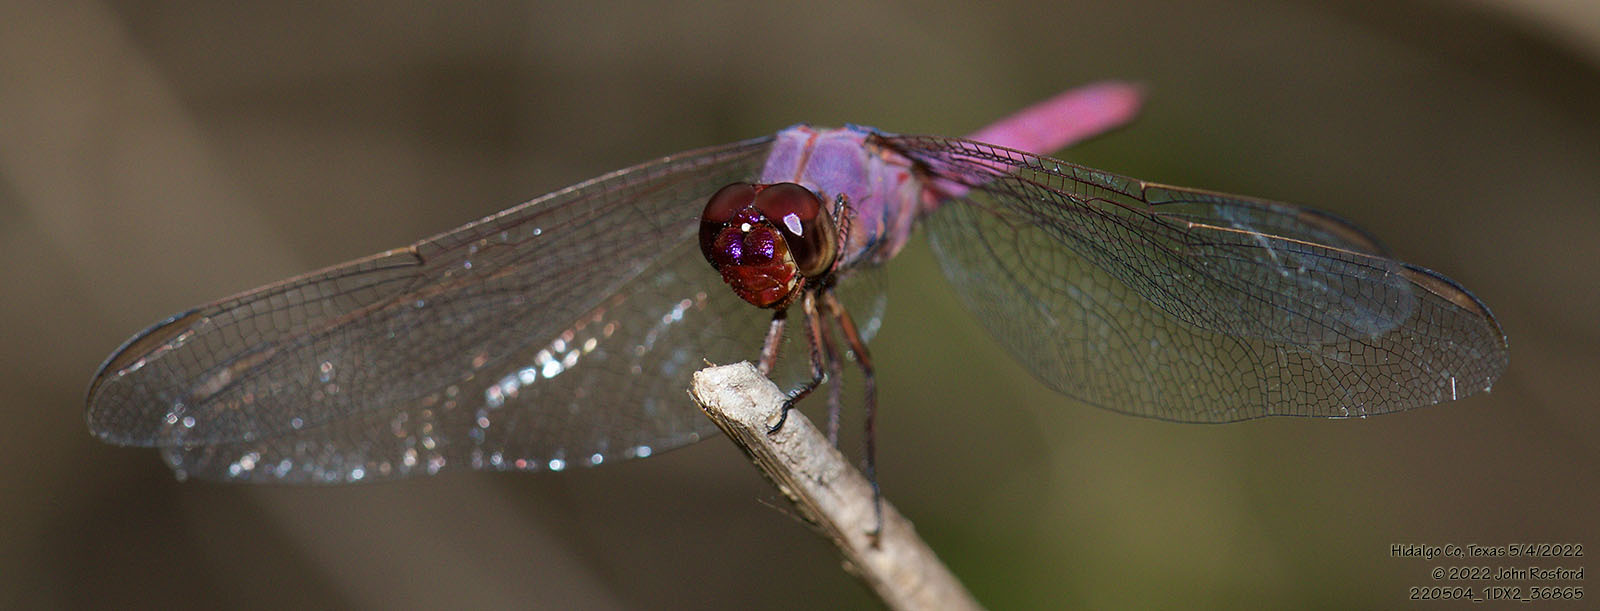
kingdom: Animalia
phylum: Arthropoda
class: Insecta
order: Odonata
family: Libellulidae
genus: Orthemis
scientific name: Orthemis ferruginea
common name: Roseate skimmer
